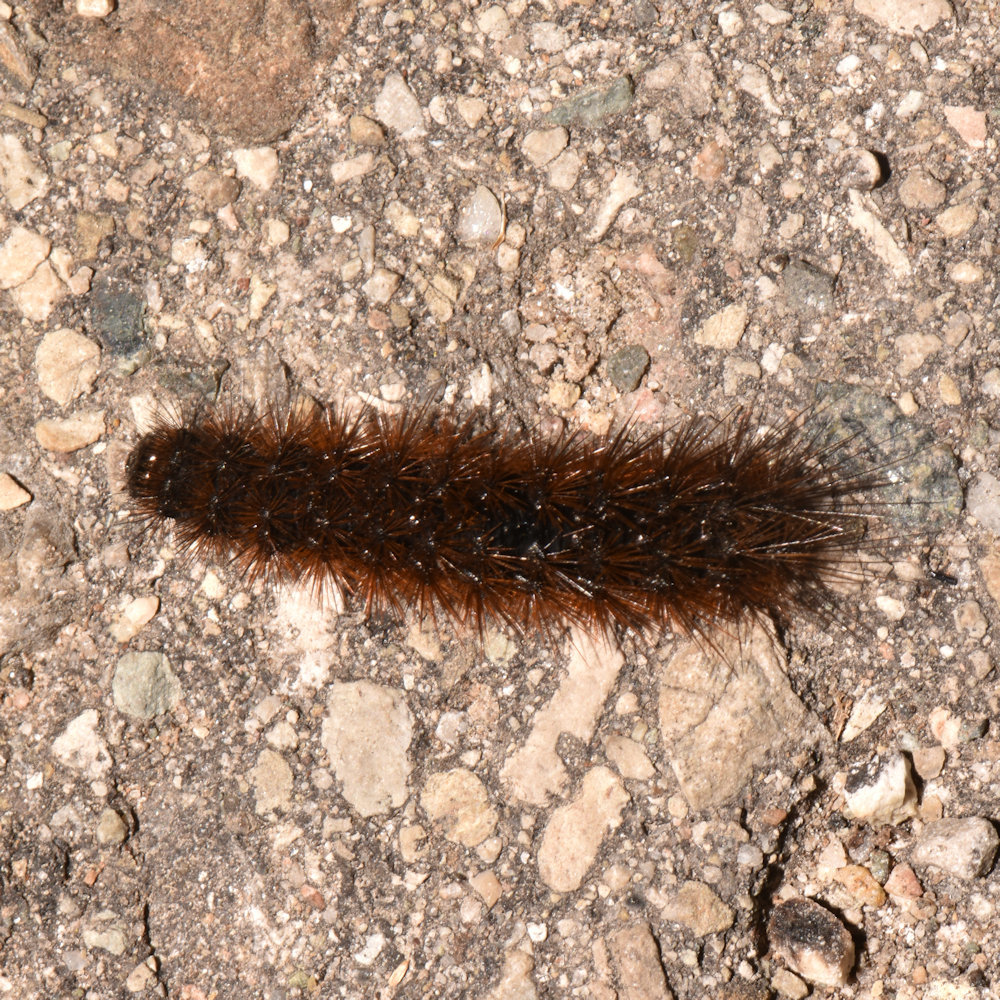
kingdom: Animalia
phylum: Arthropoda
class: Insecta
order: Lepidoptera
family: Erebidae
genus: Spilosoma
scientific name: Spilosoma virginica
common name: Virginia tiger moth
